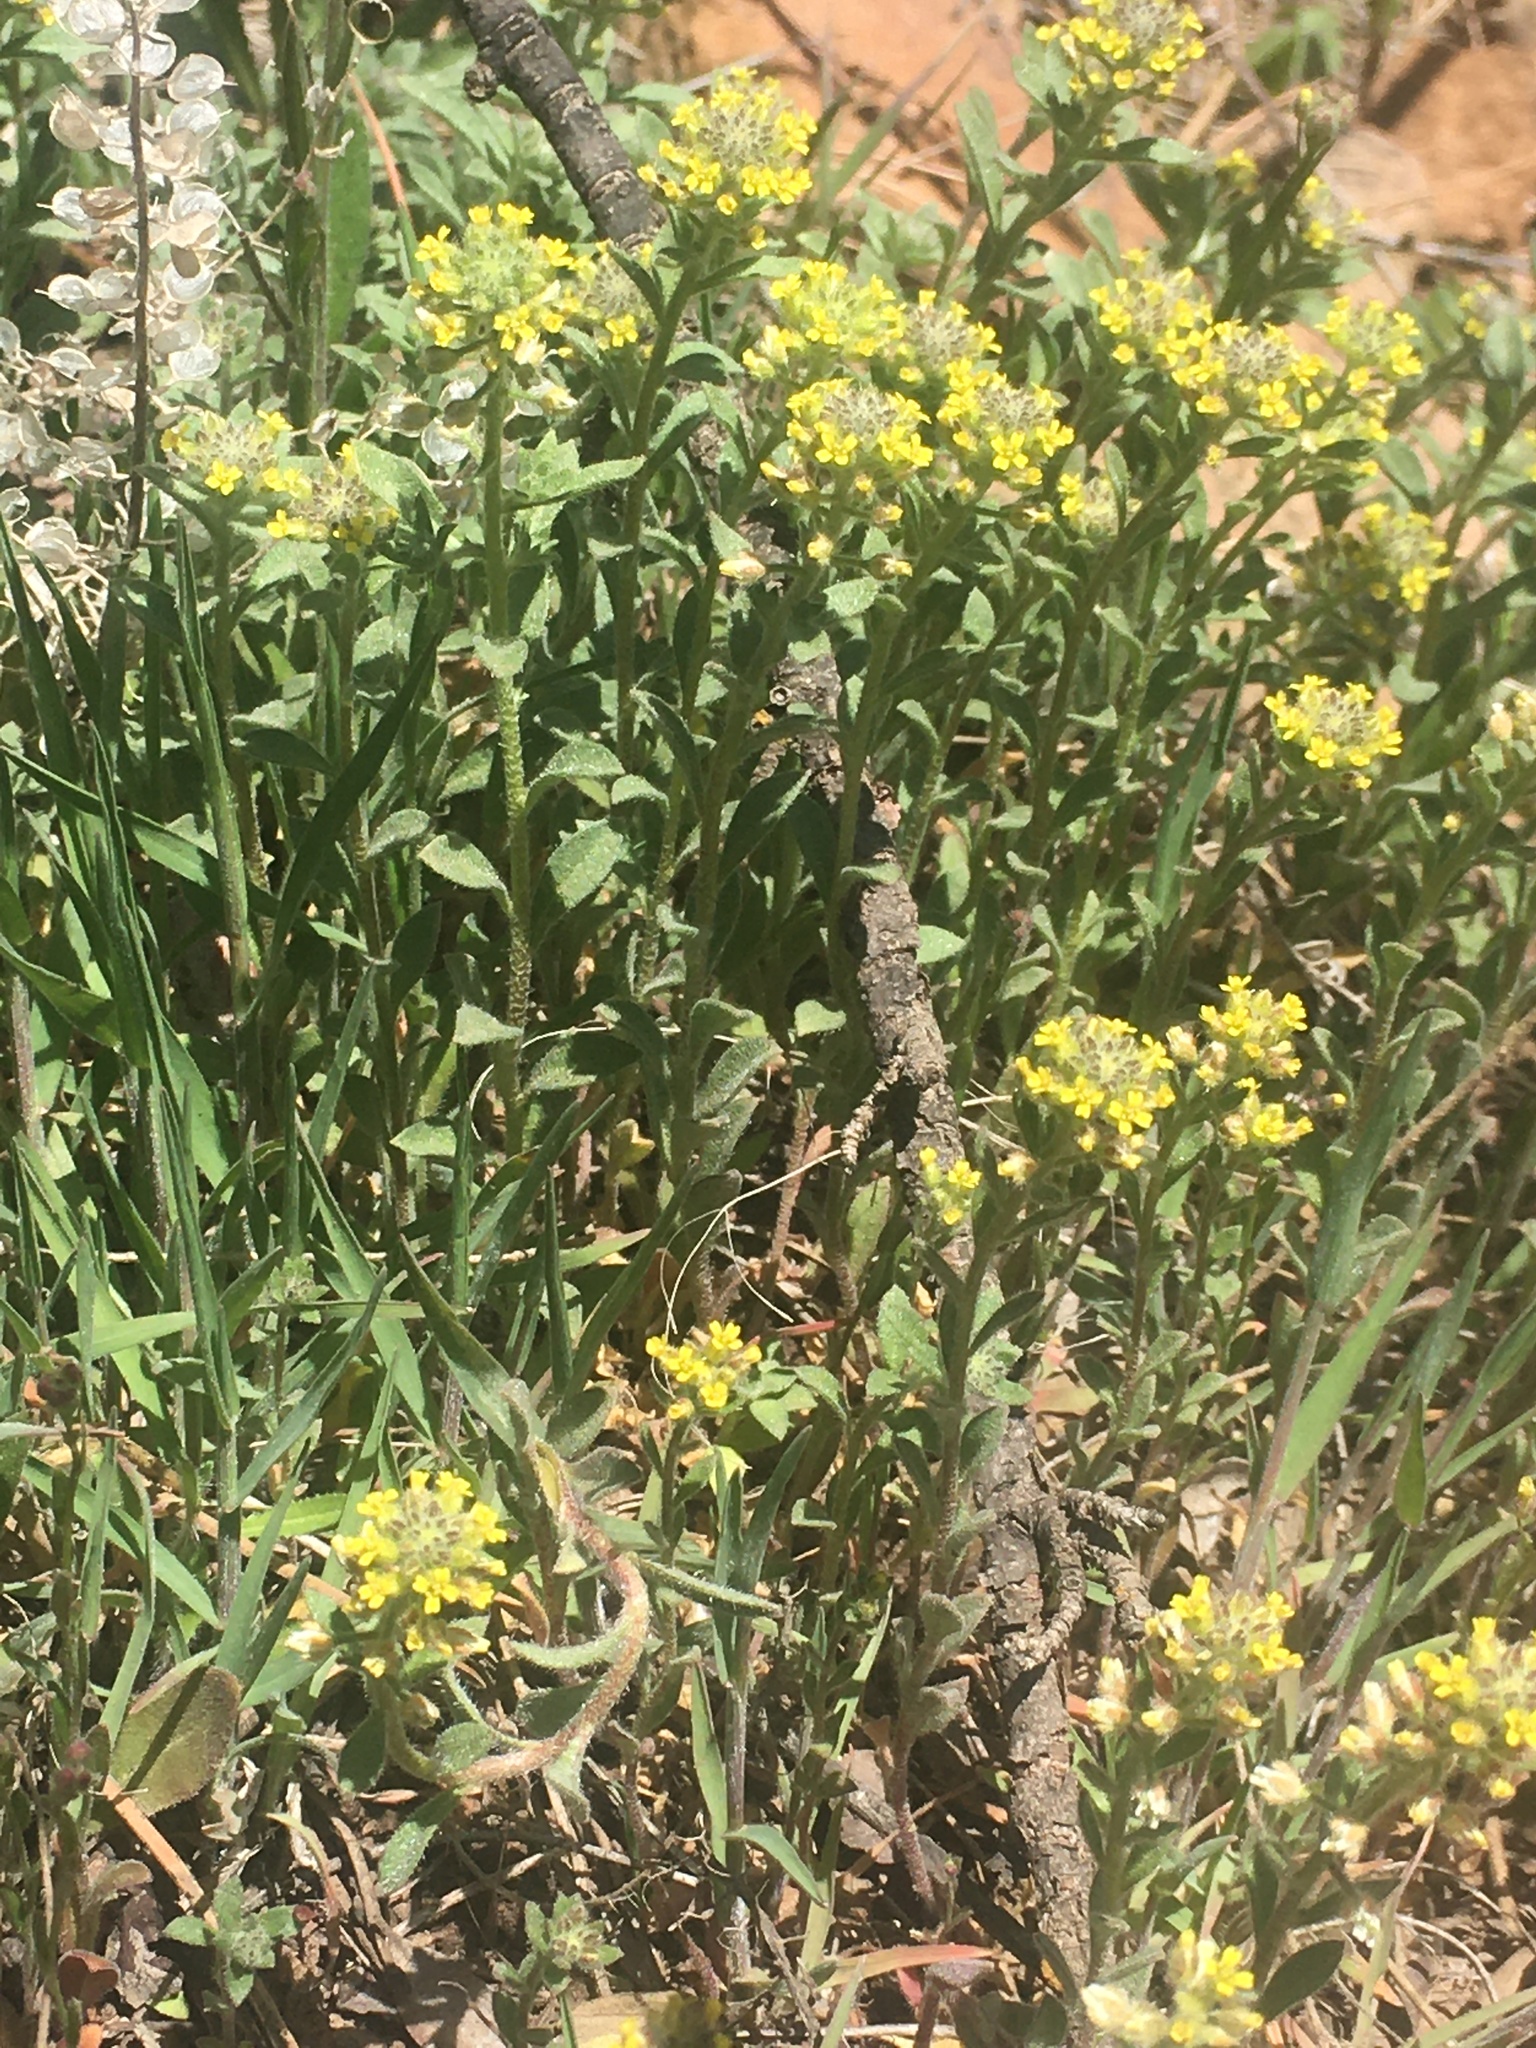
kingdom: Plantae
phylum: Tracheophyta
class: Magnoliopsida
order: Brassicales
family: Brassicaceae
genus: Alyssum
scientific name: Alyssum turkestanicum
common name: Desert alyssum
